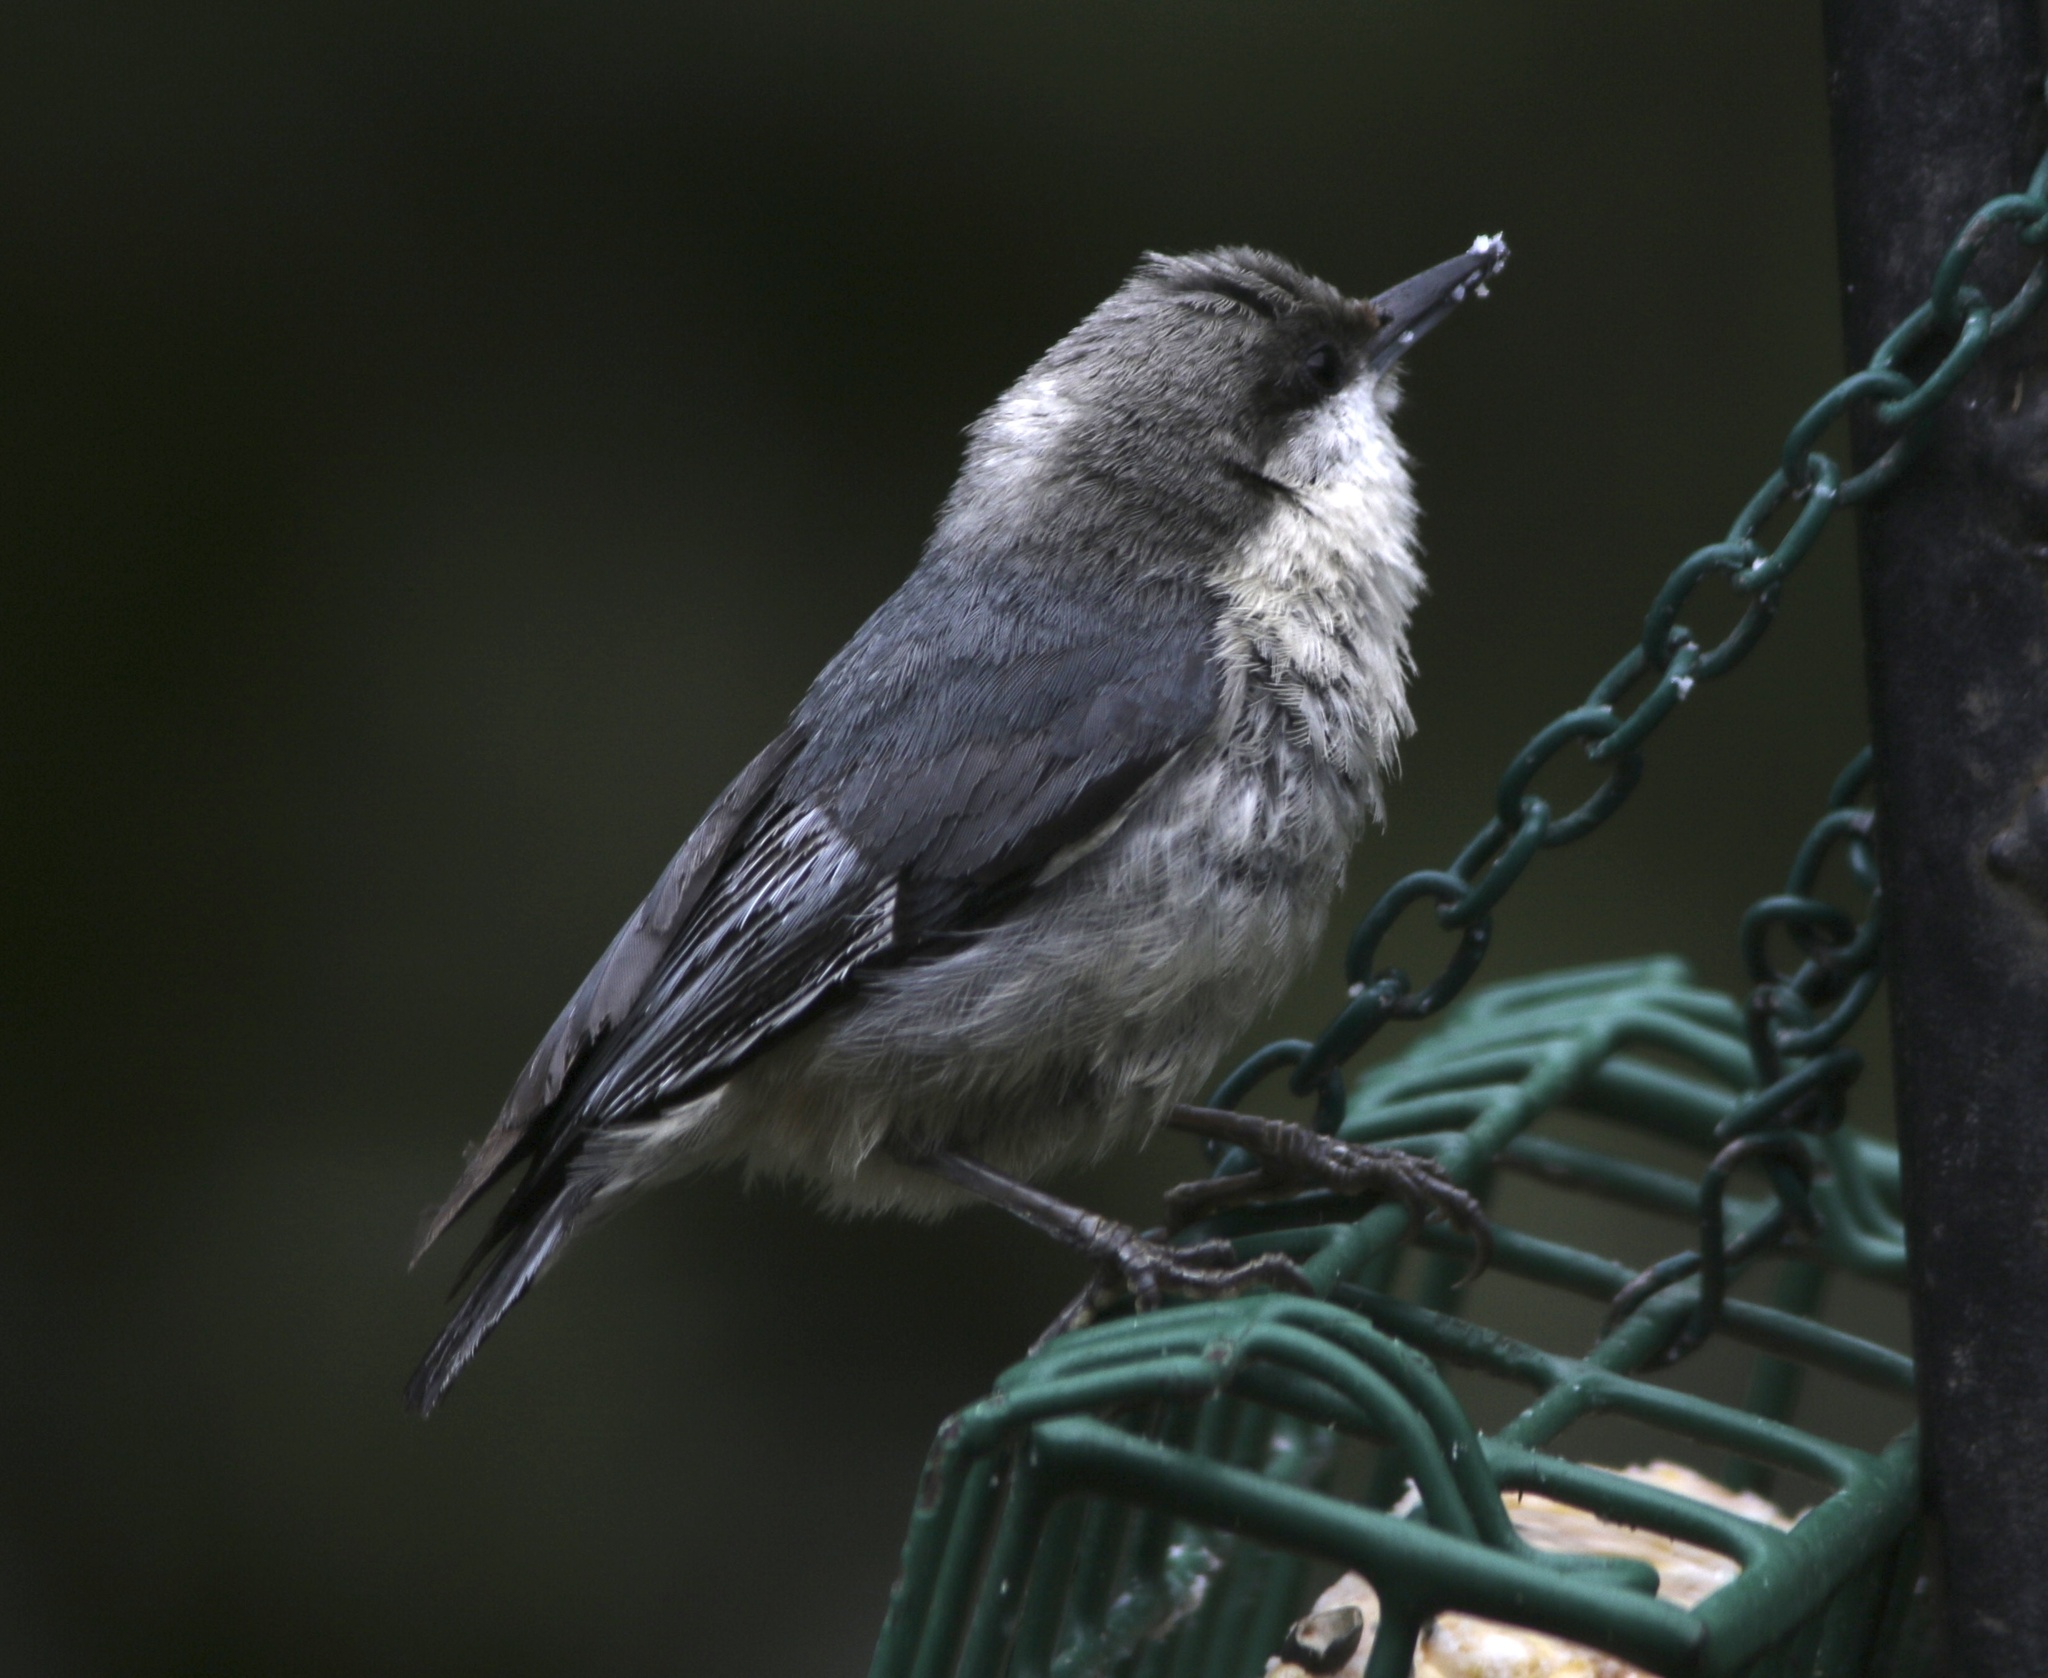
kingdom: Animalia
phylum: Chordata
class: Aves
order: Passeriformes
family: Sittidae
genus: Sitta
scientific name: Sitta pygmaea
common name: Pygmy nuthatch
